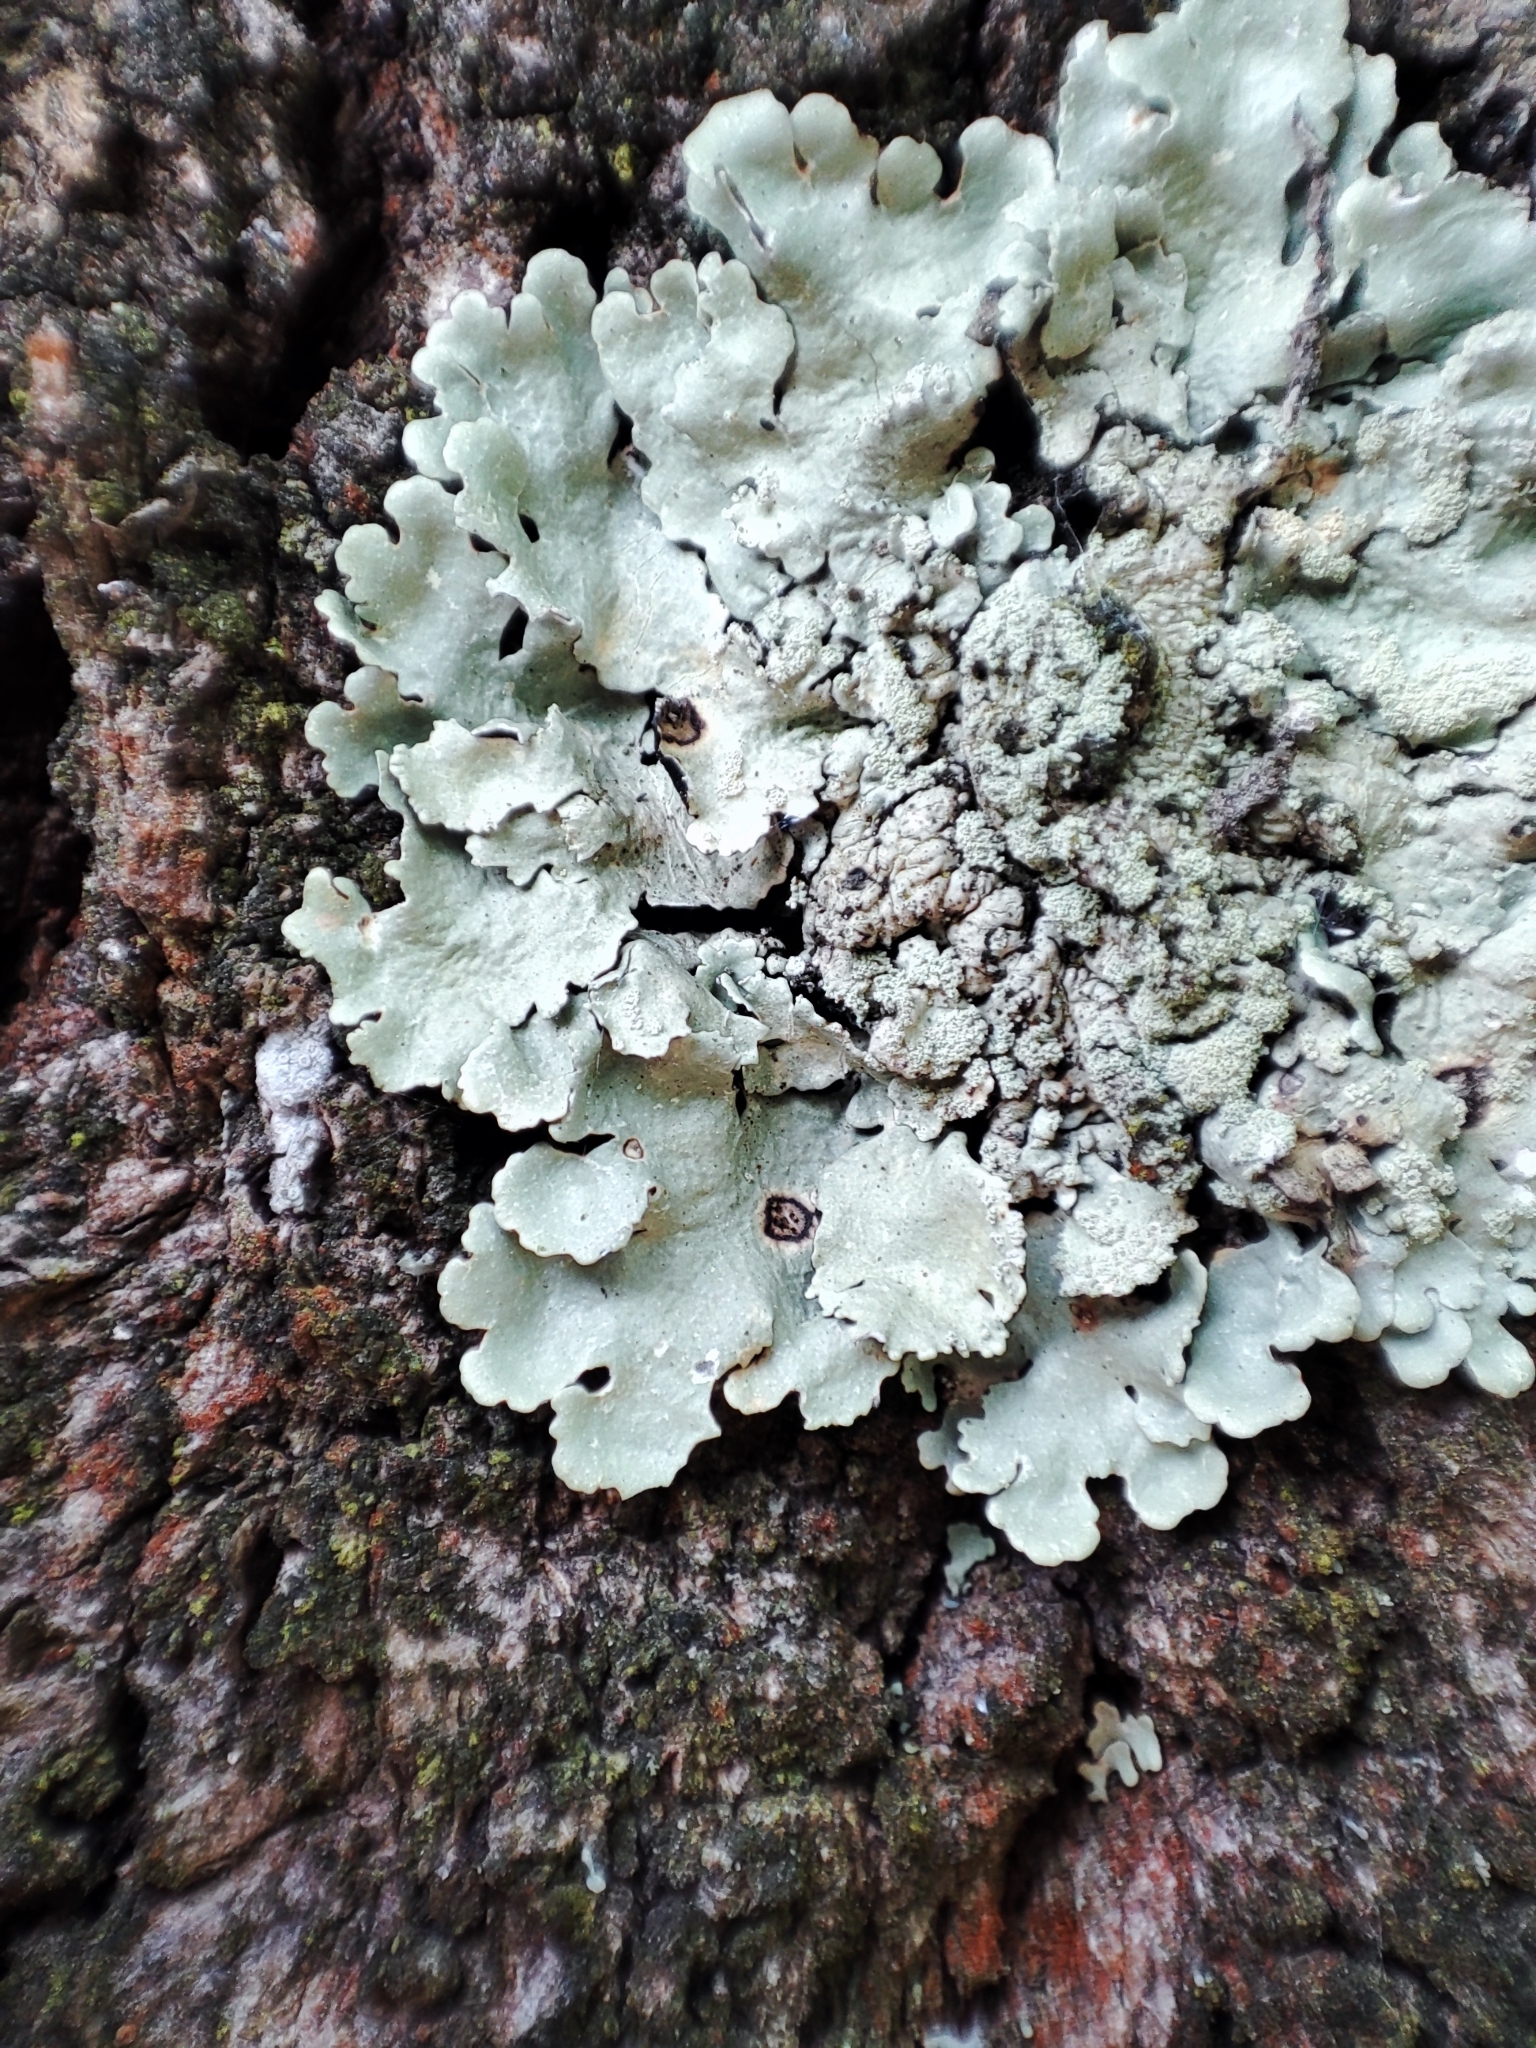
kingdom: Fungi
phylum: Ascomycota
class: Lecanoromycetes
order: Lecanorales
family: Parmeliaceae
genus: Flavoparmelia
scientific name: Flavoparmelia caperata
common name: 40-mile per hour lichen
